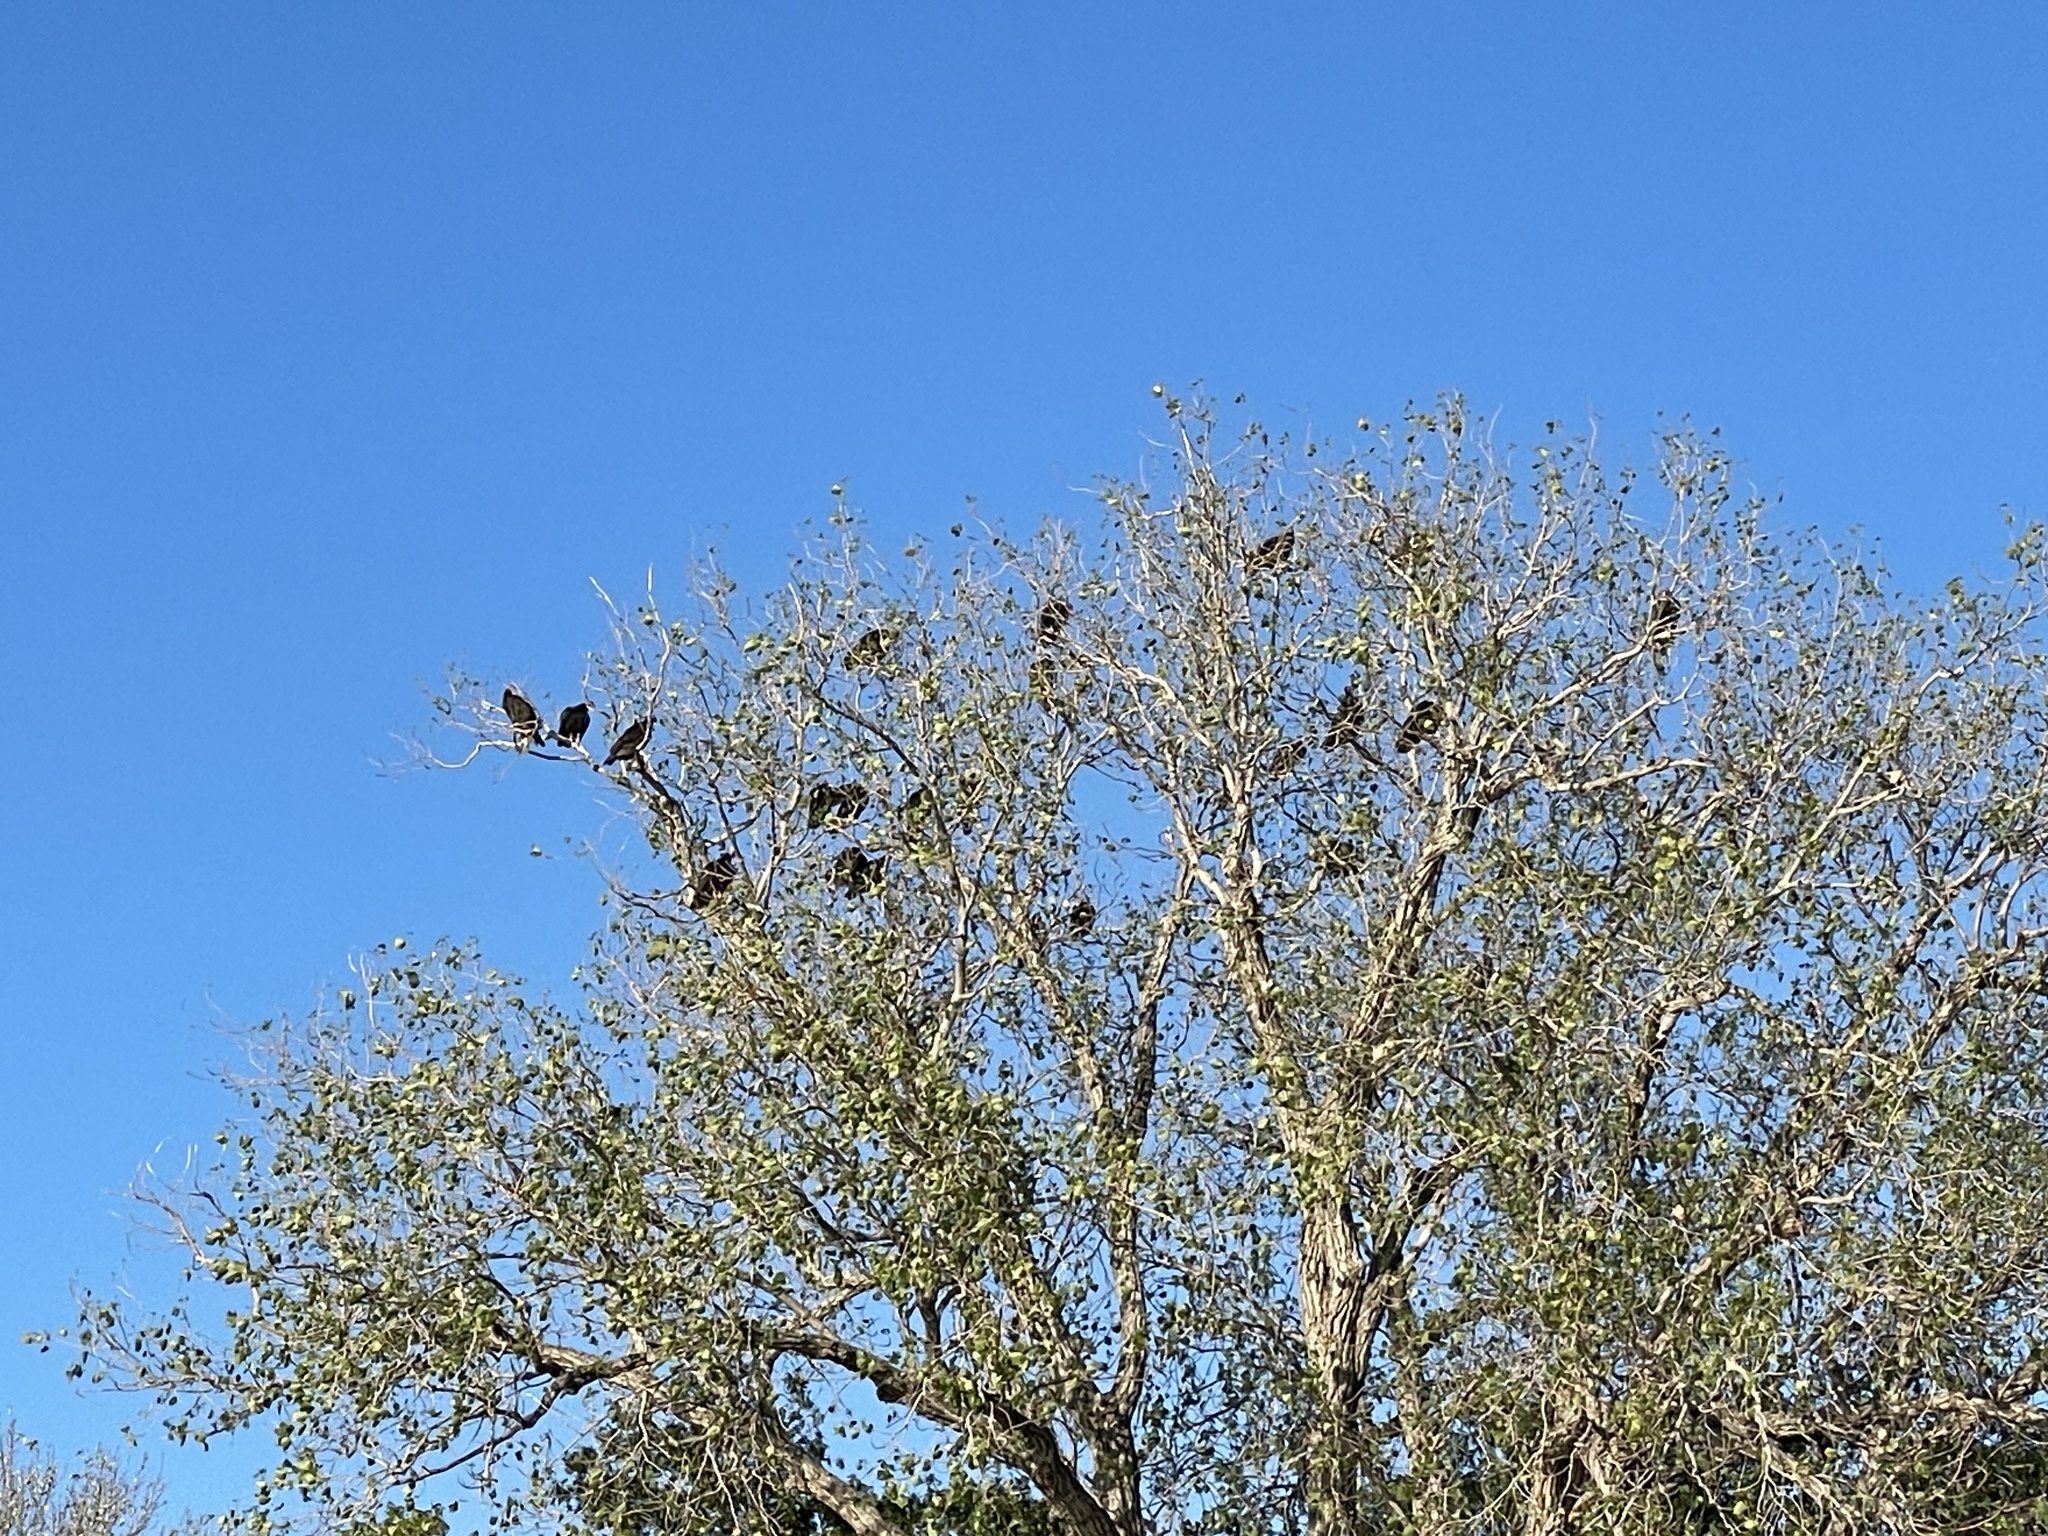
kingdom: Animalia
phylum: Chordata
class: Aves
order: Accipitriformes
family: Cathartidae
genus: Cathartes
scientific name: Cathartes aura
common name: Turkey vulture
